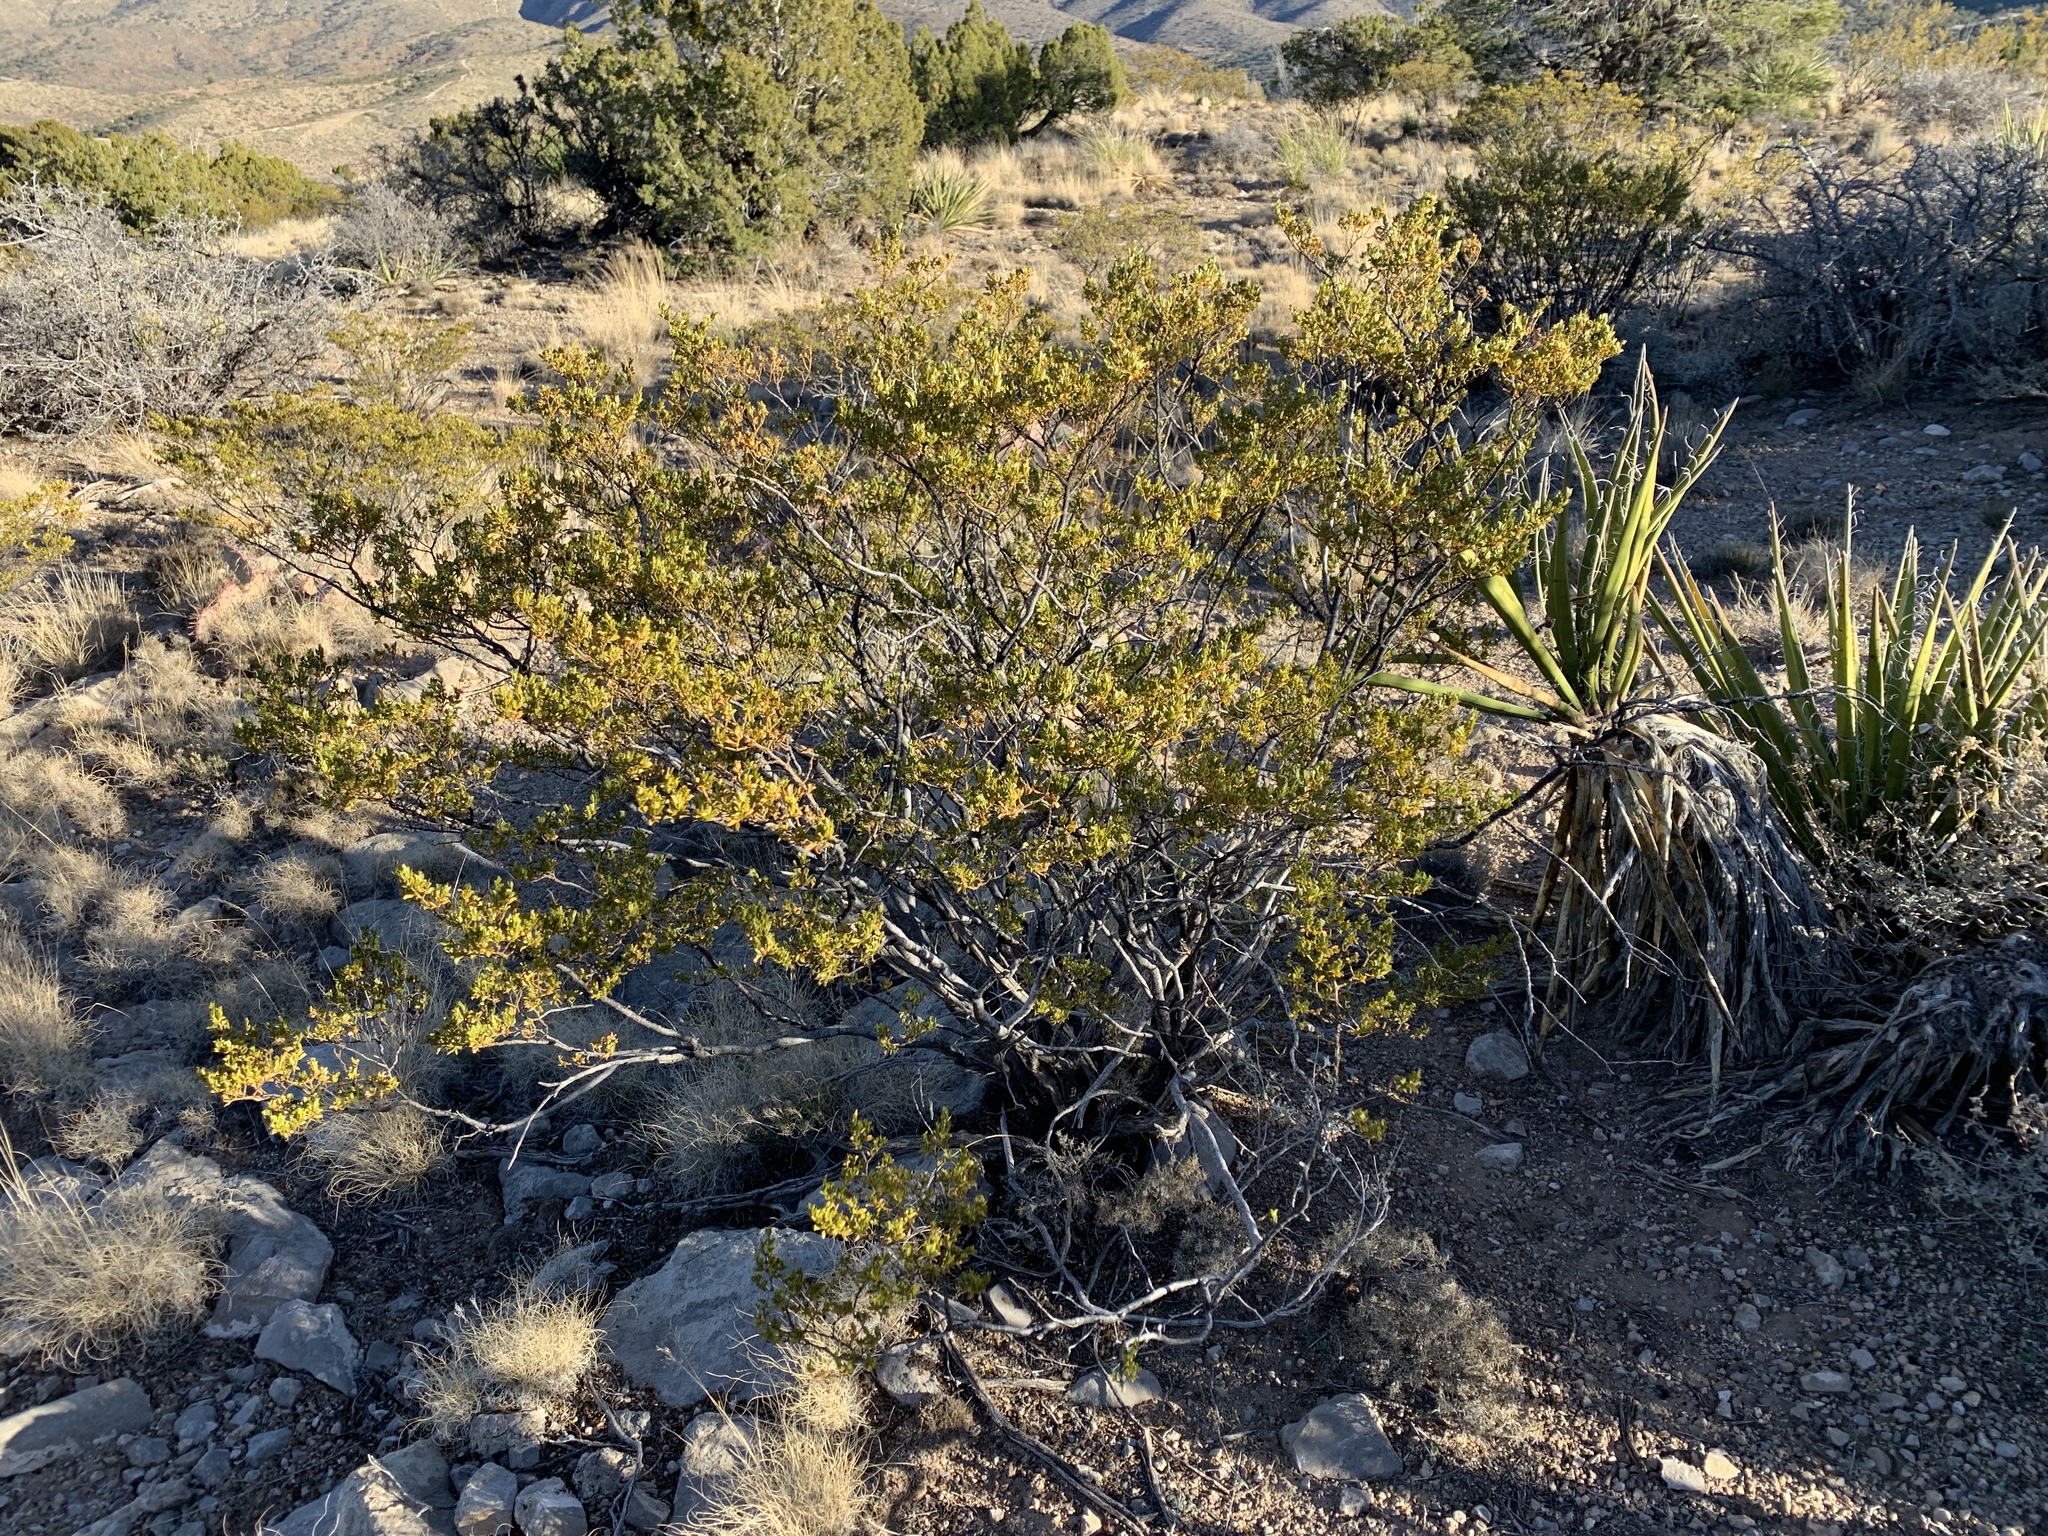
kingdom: Plantae
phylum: Tracheophyta
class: Magnoliopsida
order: Zygophyllales
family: Zygophyllaceae
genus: Larrea
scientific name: Larrea tridentata
